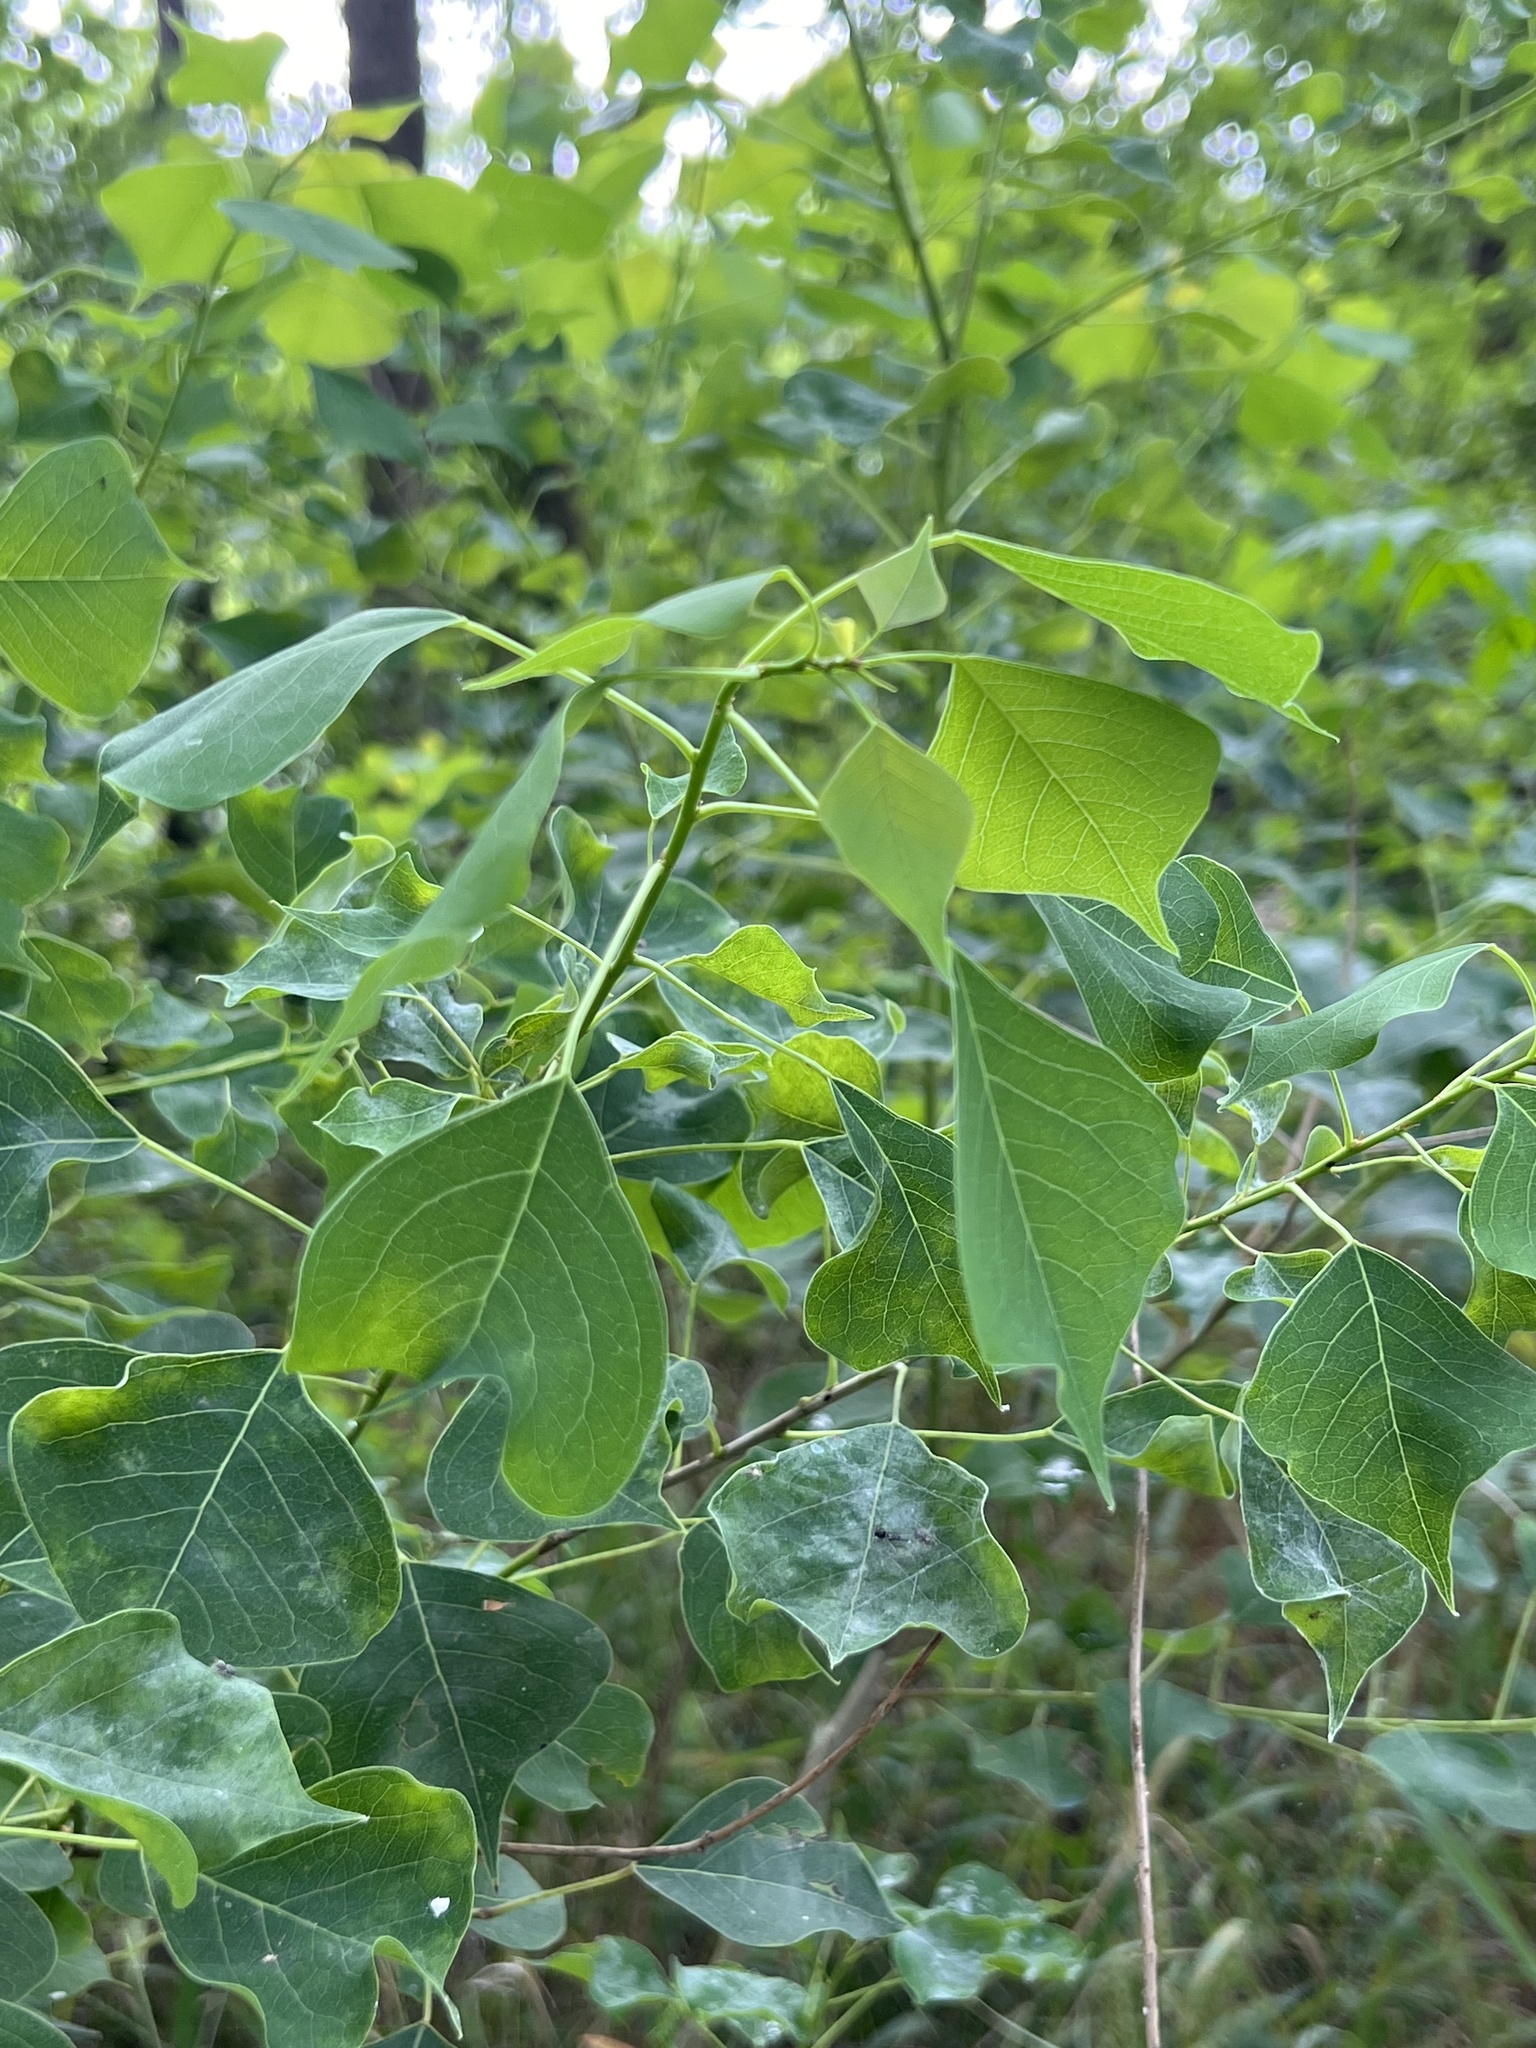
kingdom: Plantae
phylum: Tracheophyta
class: Magnoliopsida
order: Malpighiales
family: Euphorbiaceae
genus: Triadica
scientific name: Triadica sebifera
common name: Chinese tallow
